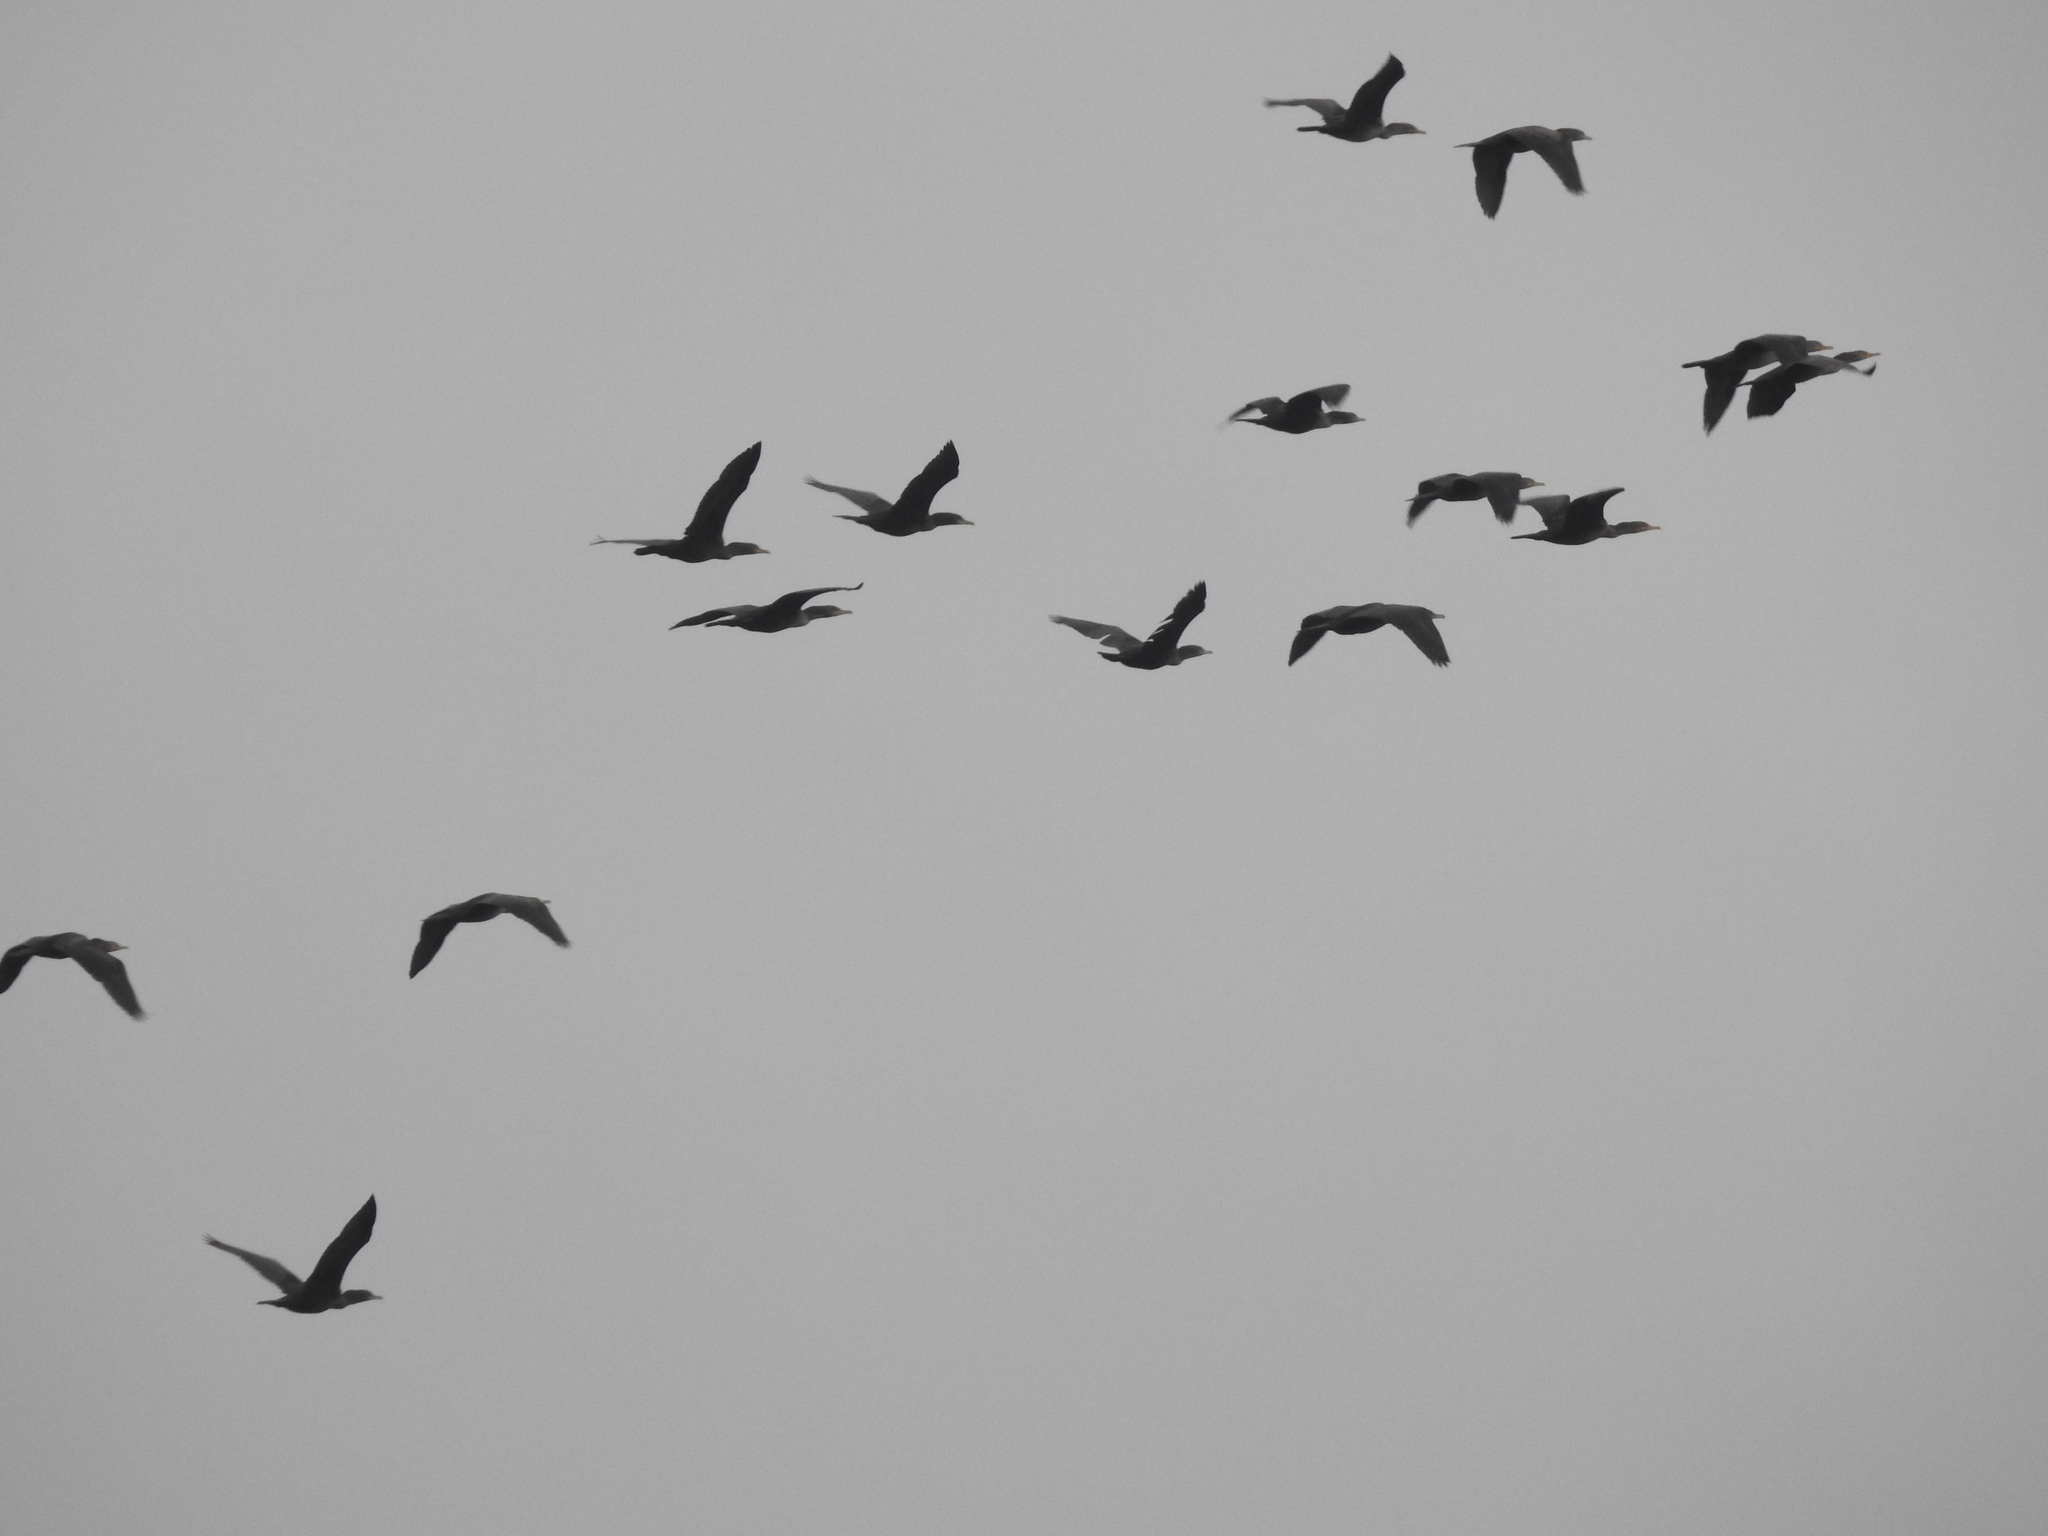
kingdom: Animalia
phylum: Chordata
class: Aves
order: Suliformes
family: Phalacrocoracidae
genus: Phalacrocorax
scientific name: Phalacrocorax auritus
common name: Double-crested cormorant
